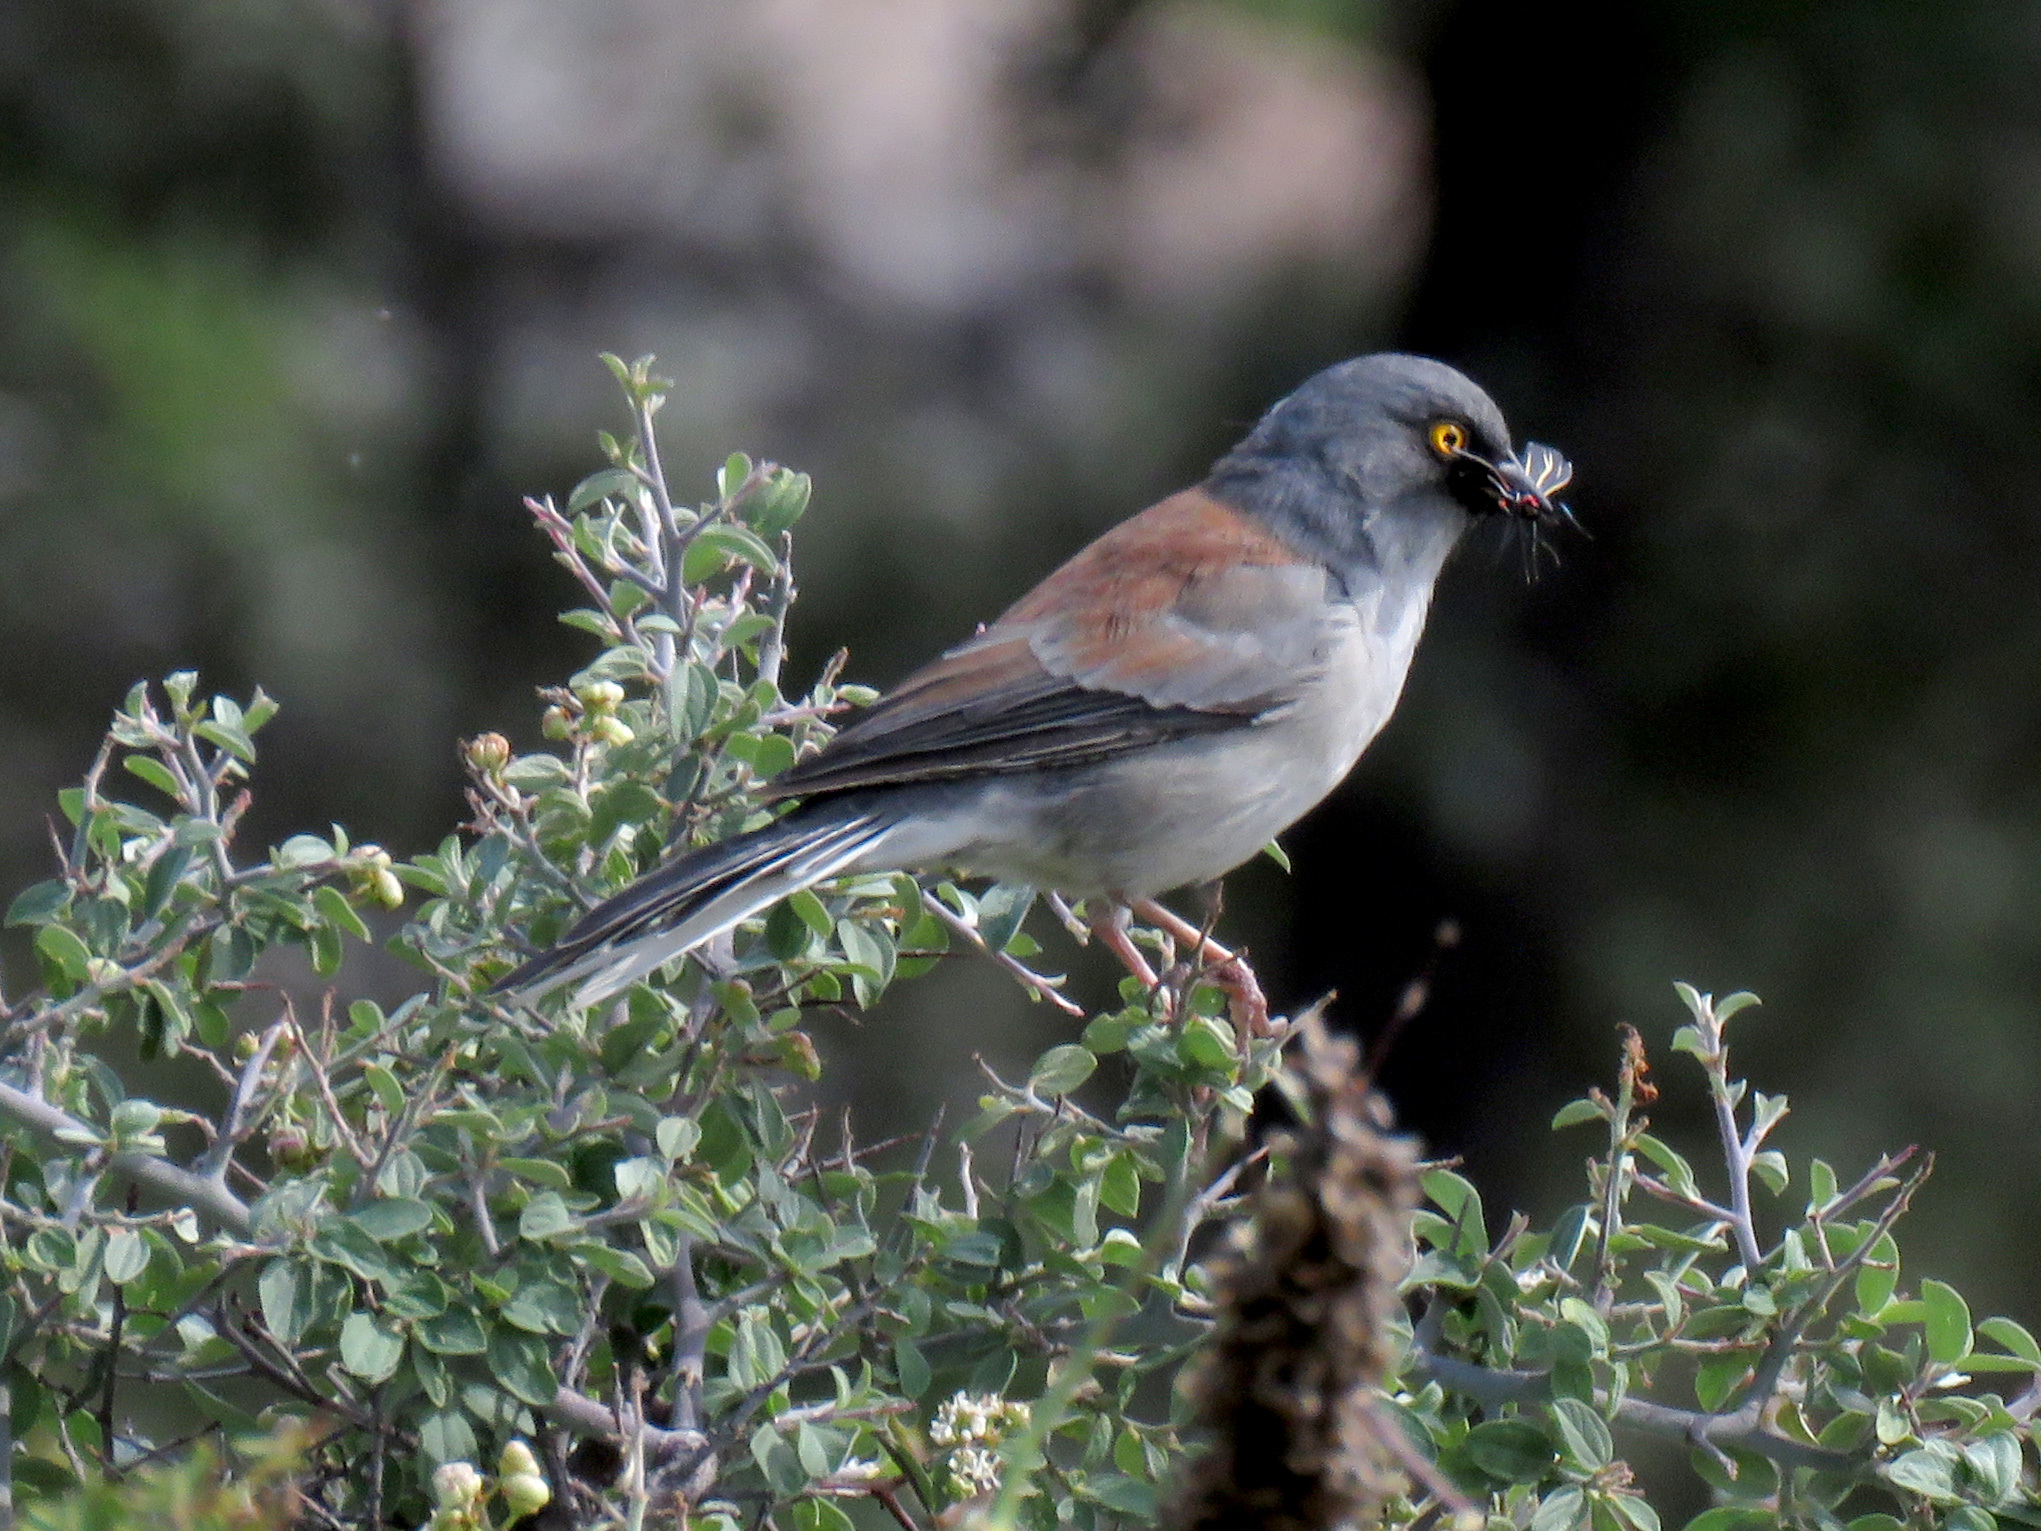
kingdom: Animalia
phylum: Arthropoda
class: Insecta
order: Lepidoptera
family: Erebidae
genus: Ctenucha
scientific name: Ctenucha venosa
